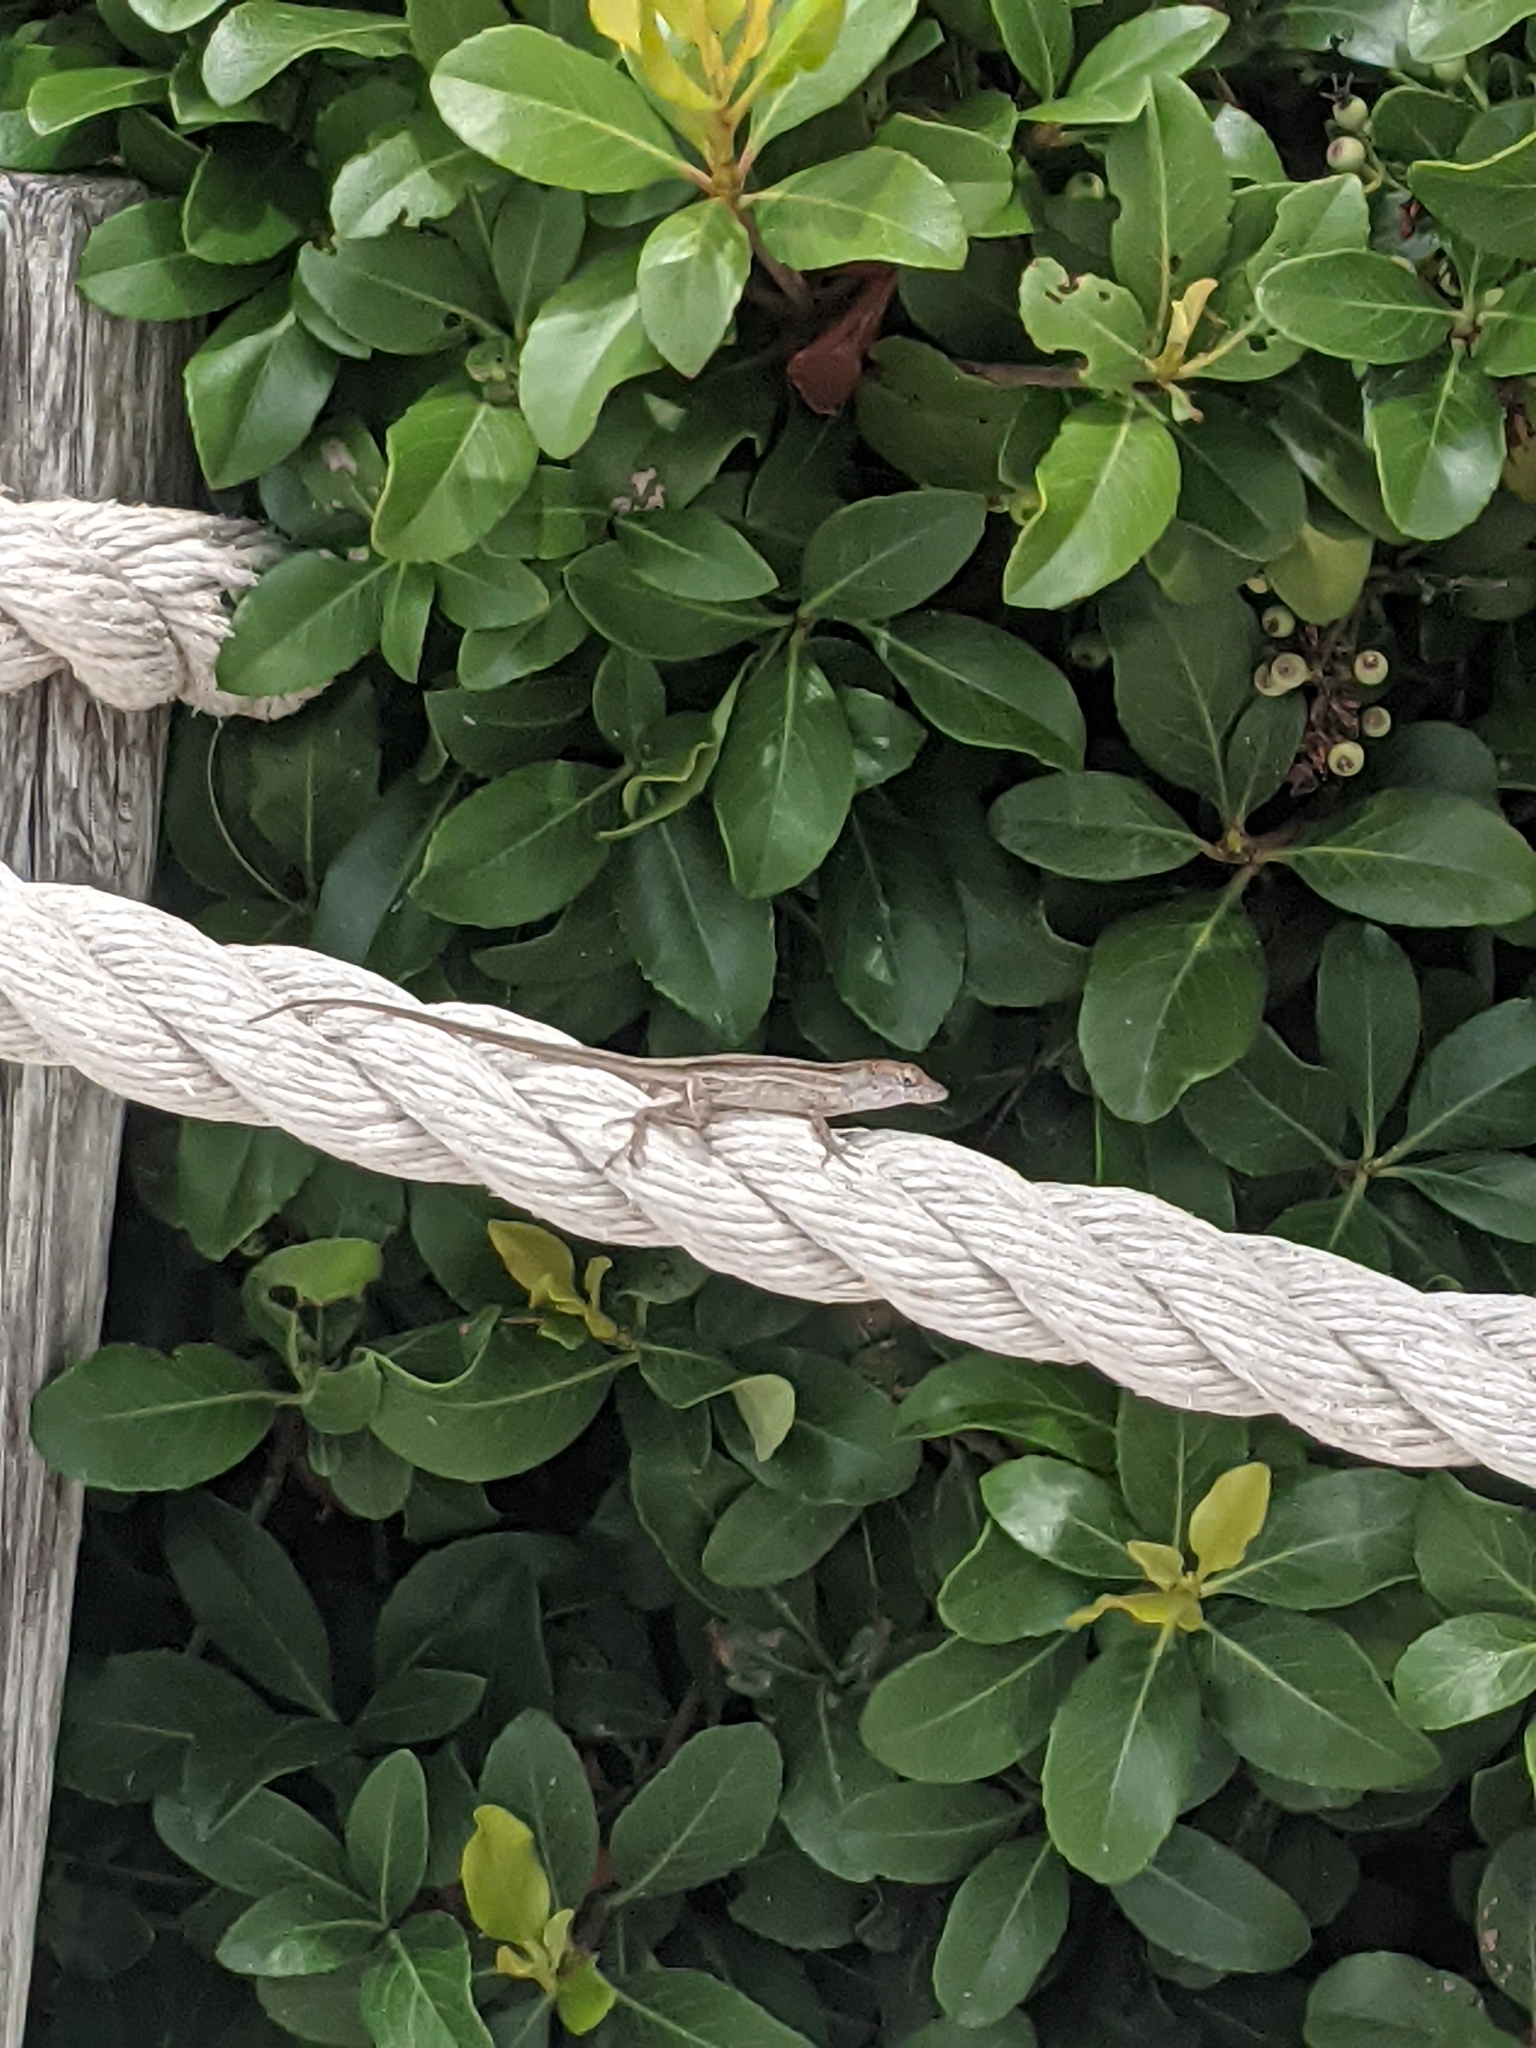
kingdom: Animalia
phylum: Chordata
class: Squamata
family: Dactyloidae
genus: Anolis
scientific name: Anolis sagrei
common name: Brown anole
